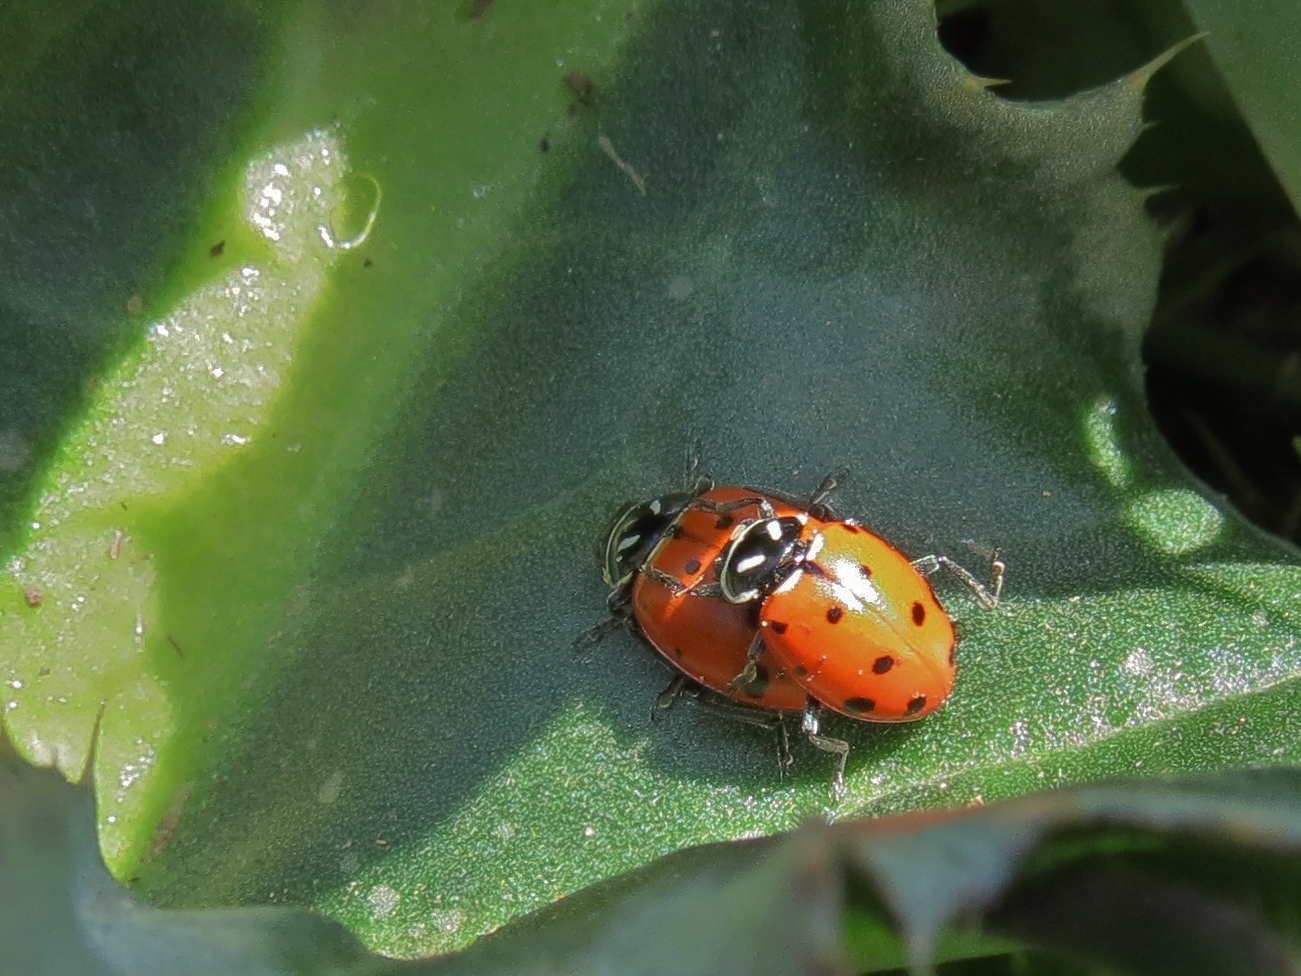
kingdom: Animalia
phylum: Arthropoda
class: Insecta
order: Coleoptera
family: Coccinellidae
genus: Hippodamia
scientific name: Hippodamia convergens
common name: Convergent lady beetle
